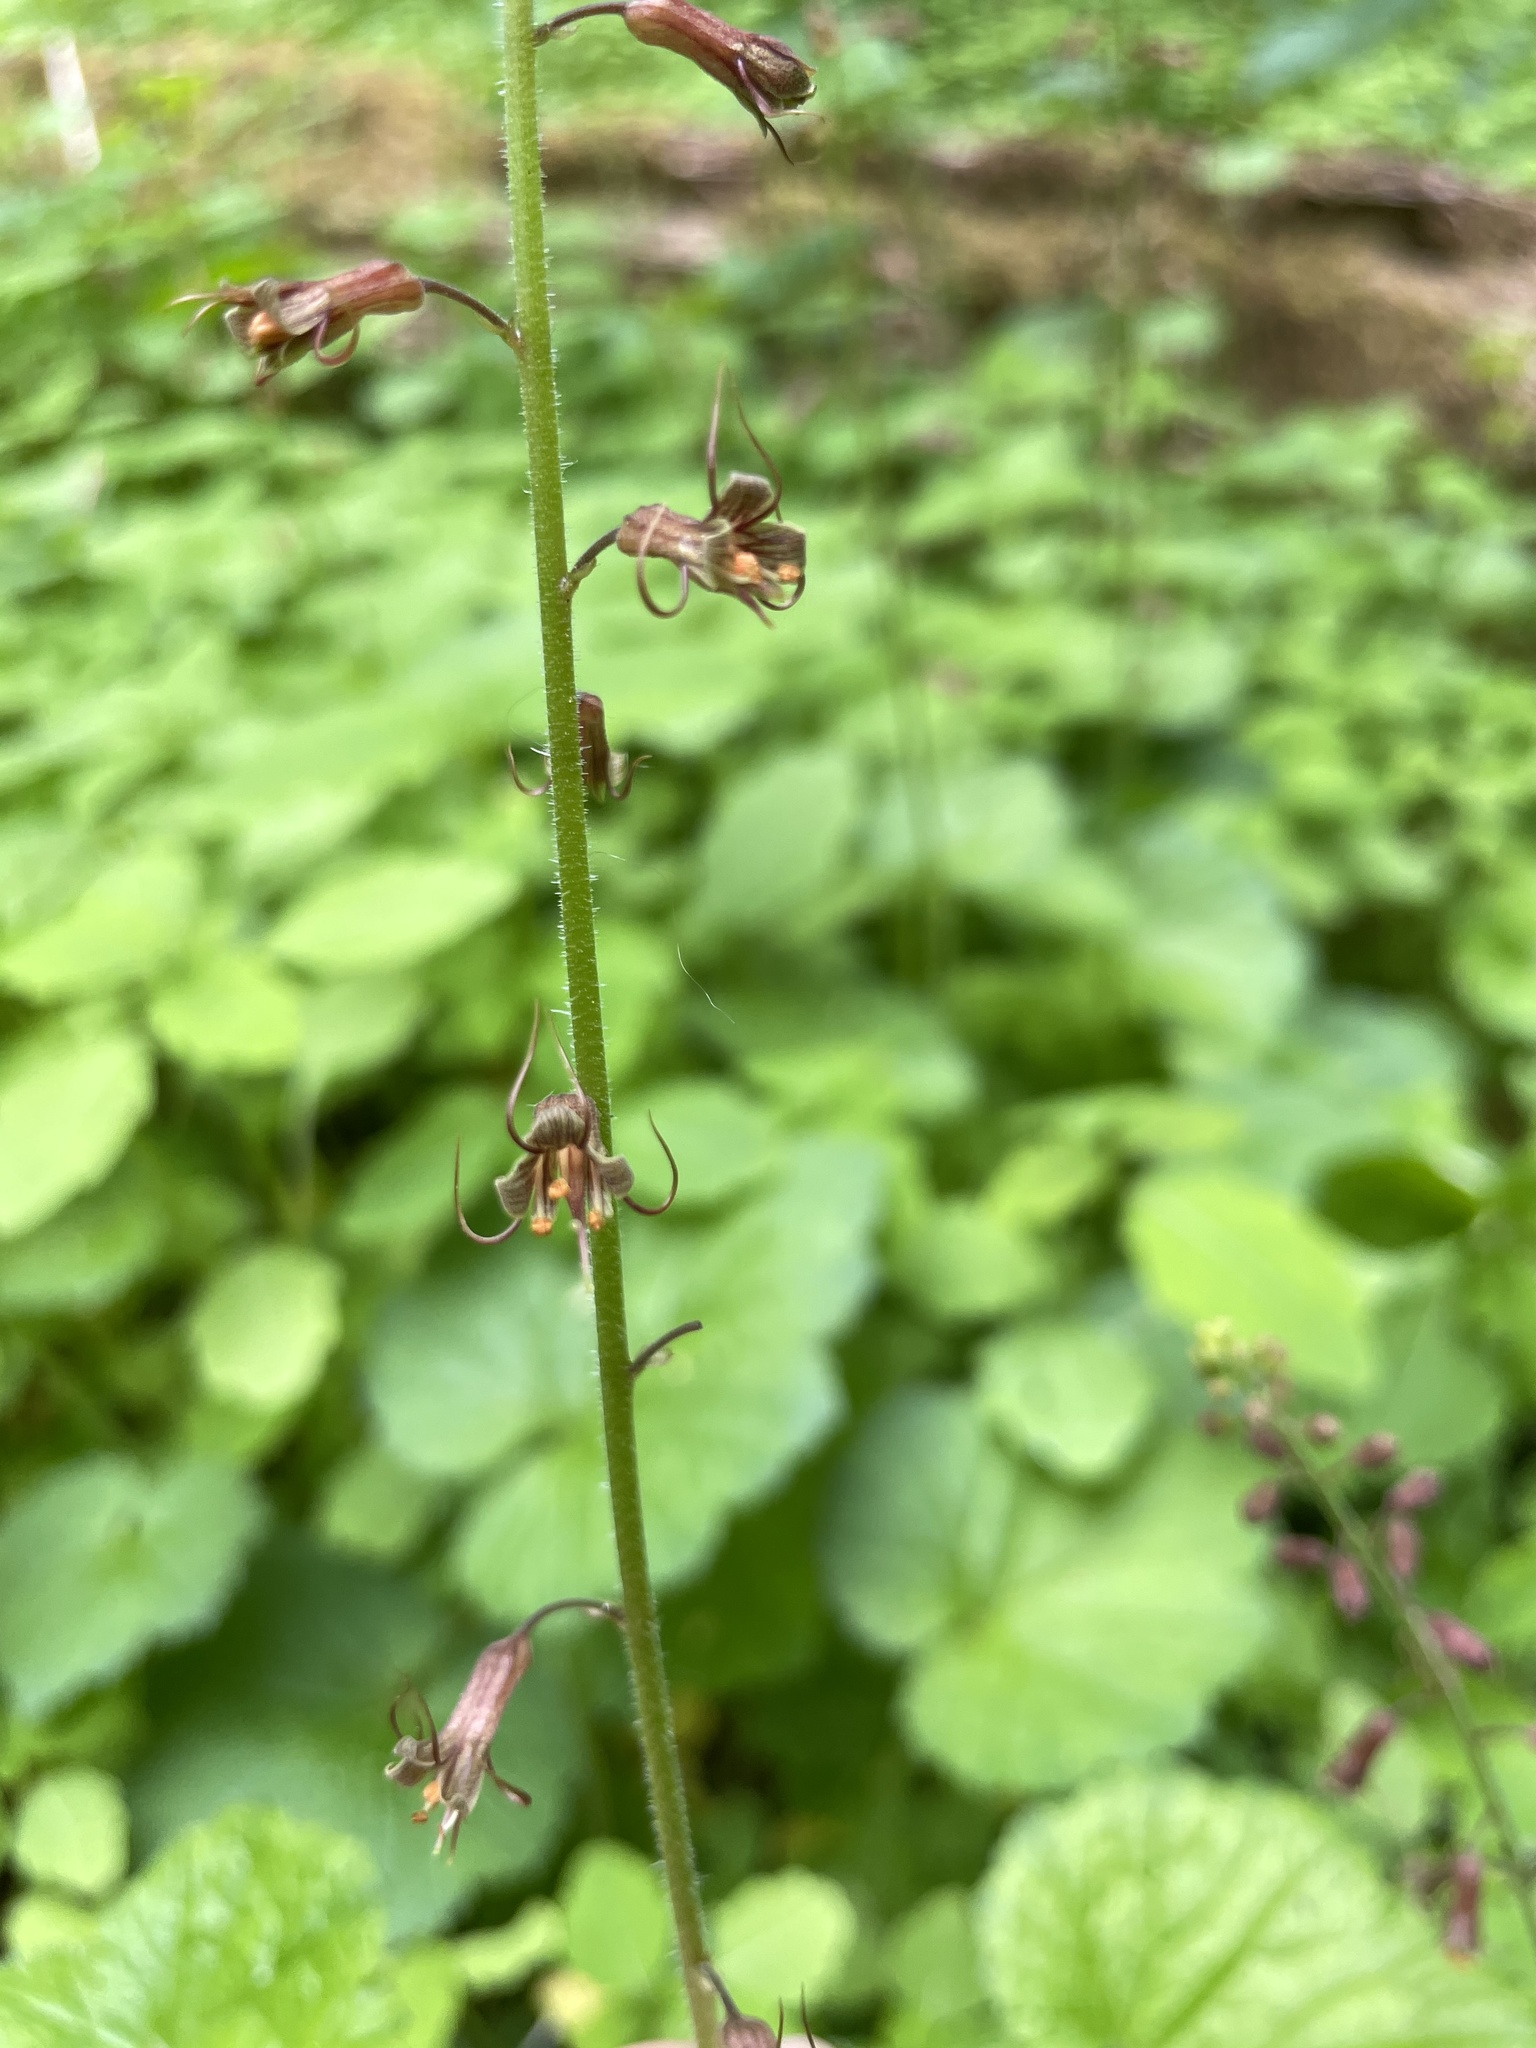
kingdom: Plantae
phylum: Tracheophyta
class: Magnoliopsida
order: Saxifragales
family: Saxifragaceae
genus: Tolmiea
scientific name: Tolmiea menziesii
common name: Pick-a-back-plant
